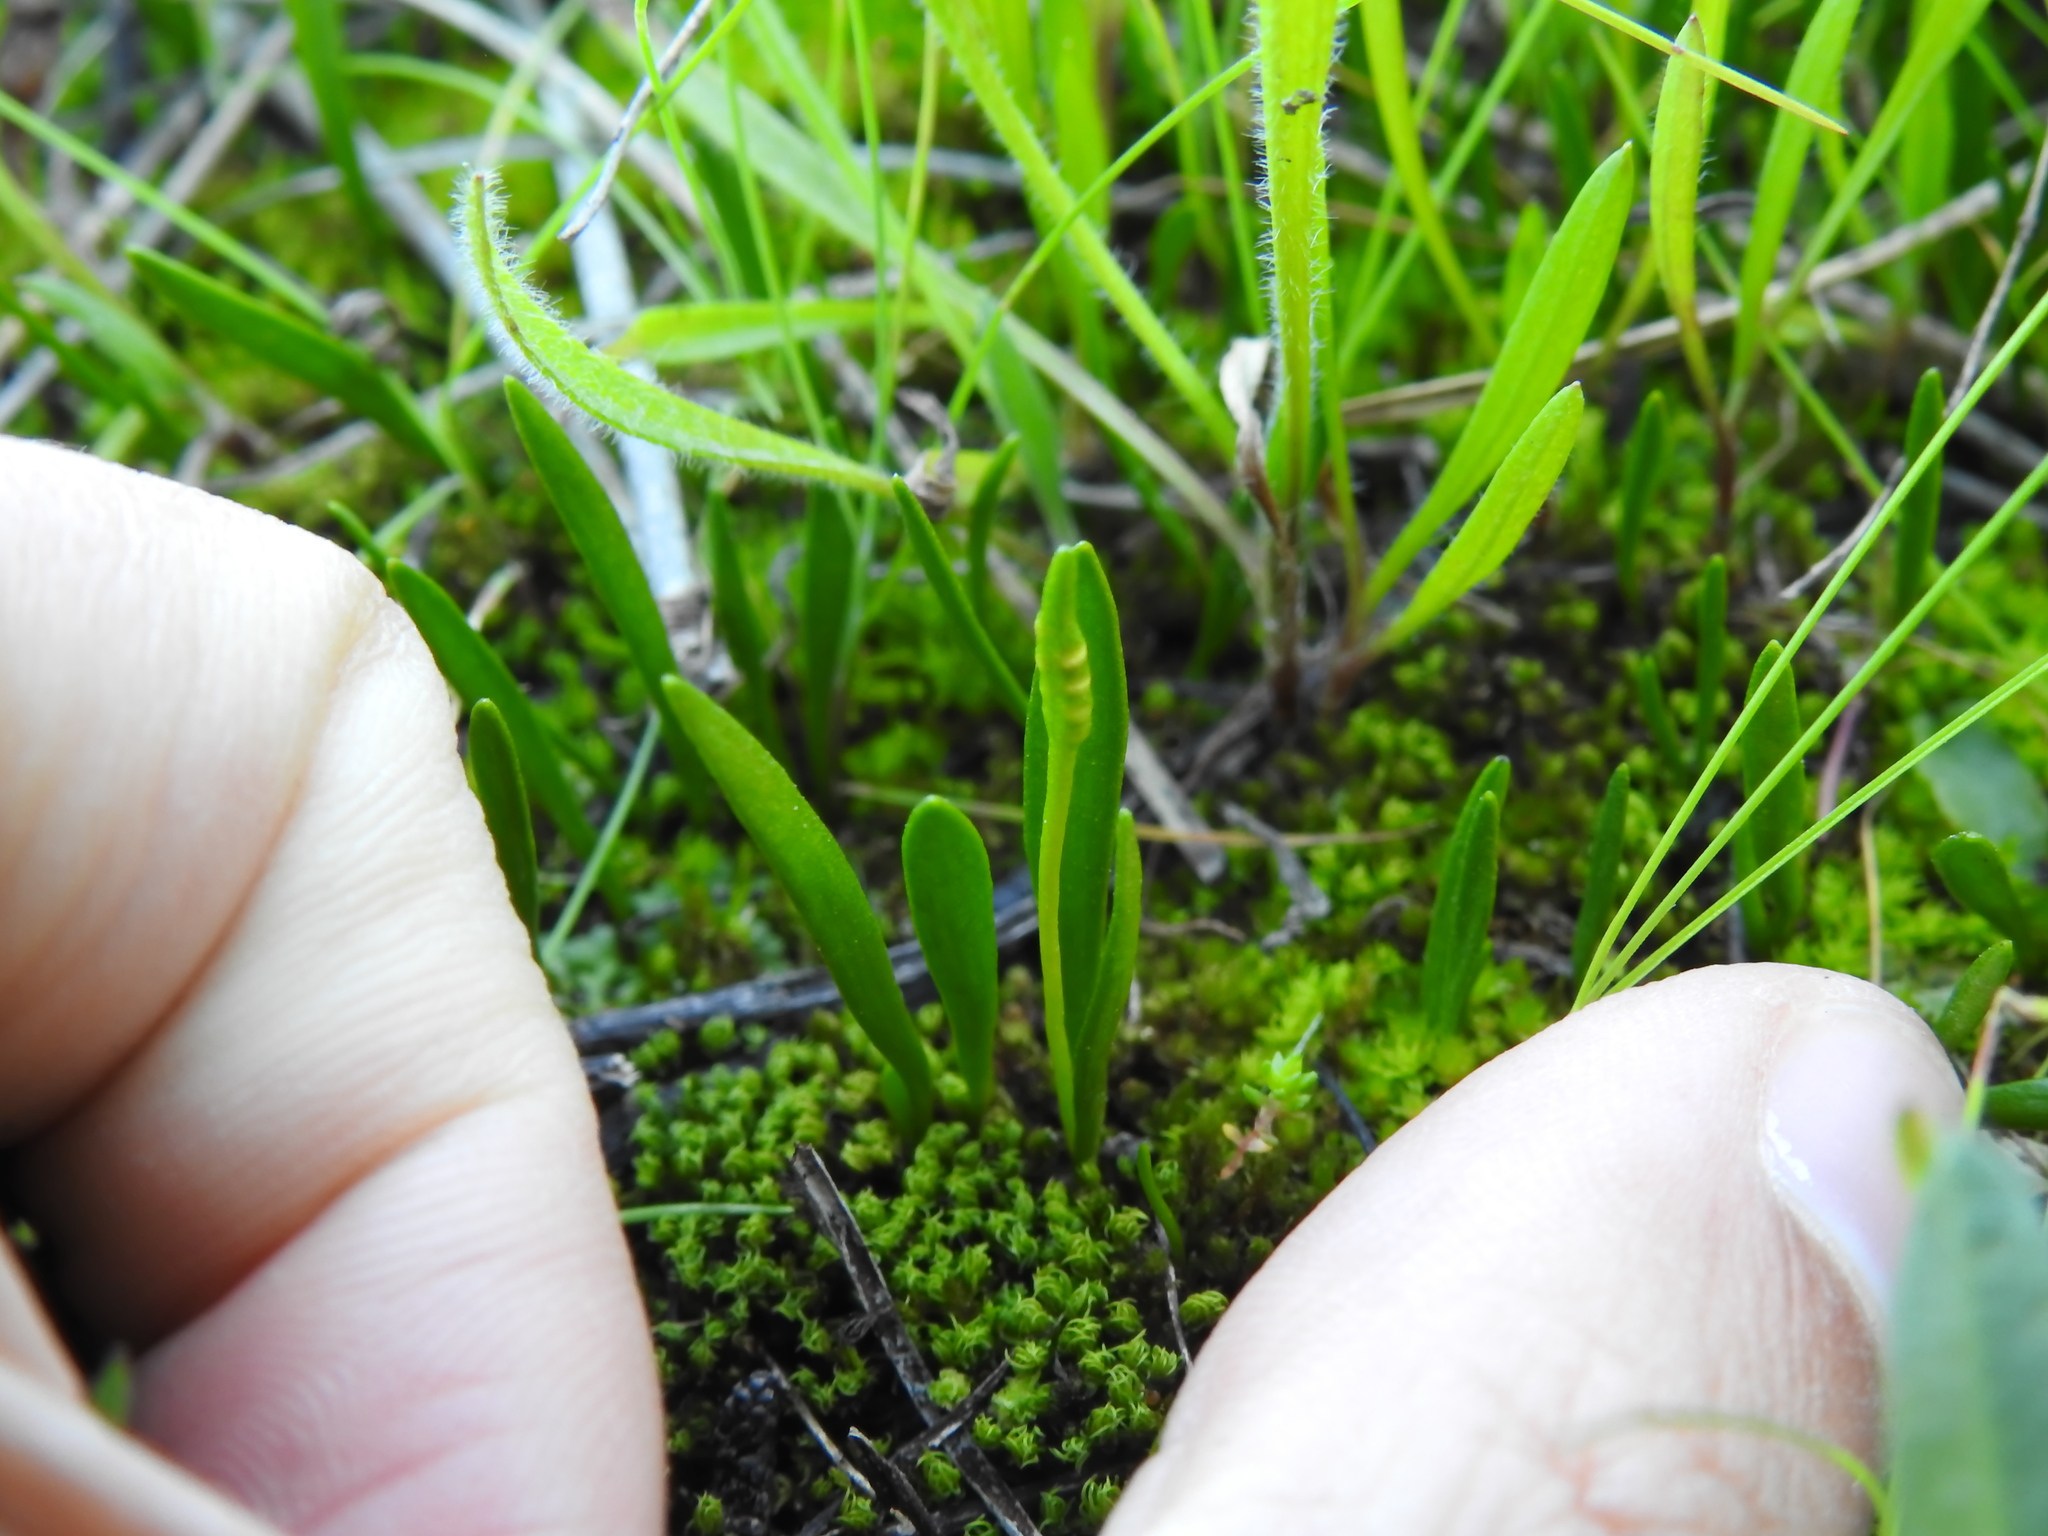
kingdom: Plantae
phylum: Tracheophyta
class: Polypodiopsida
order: Ophioglossales
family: Ophioglossaceae
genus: Ophioglossum
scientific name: Ophioglossum lusitanicum
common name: Least adder's-tongue
